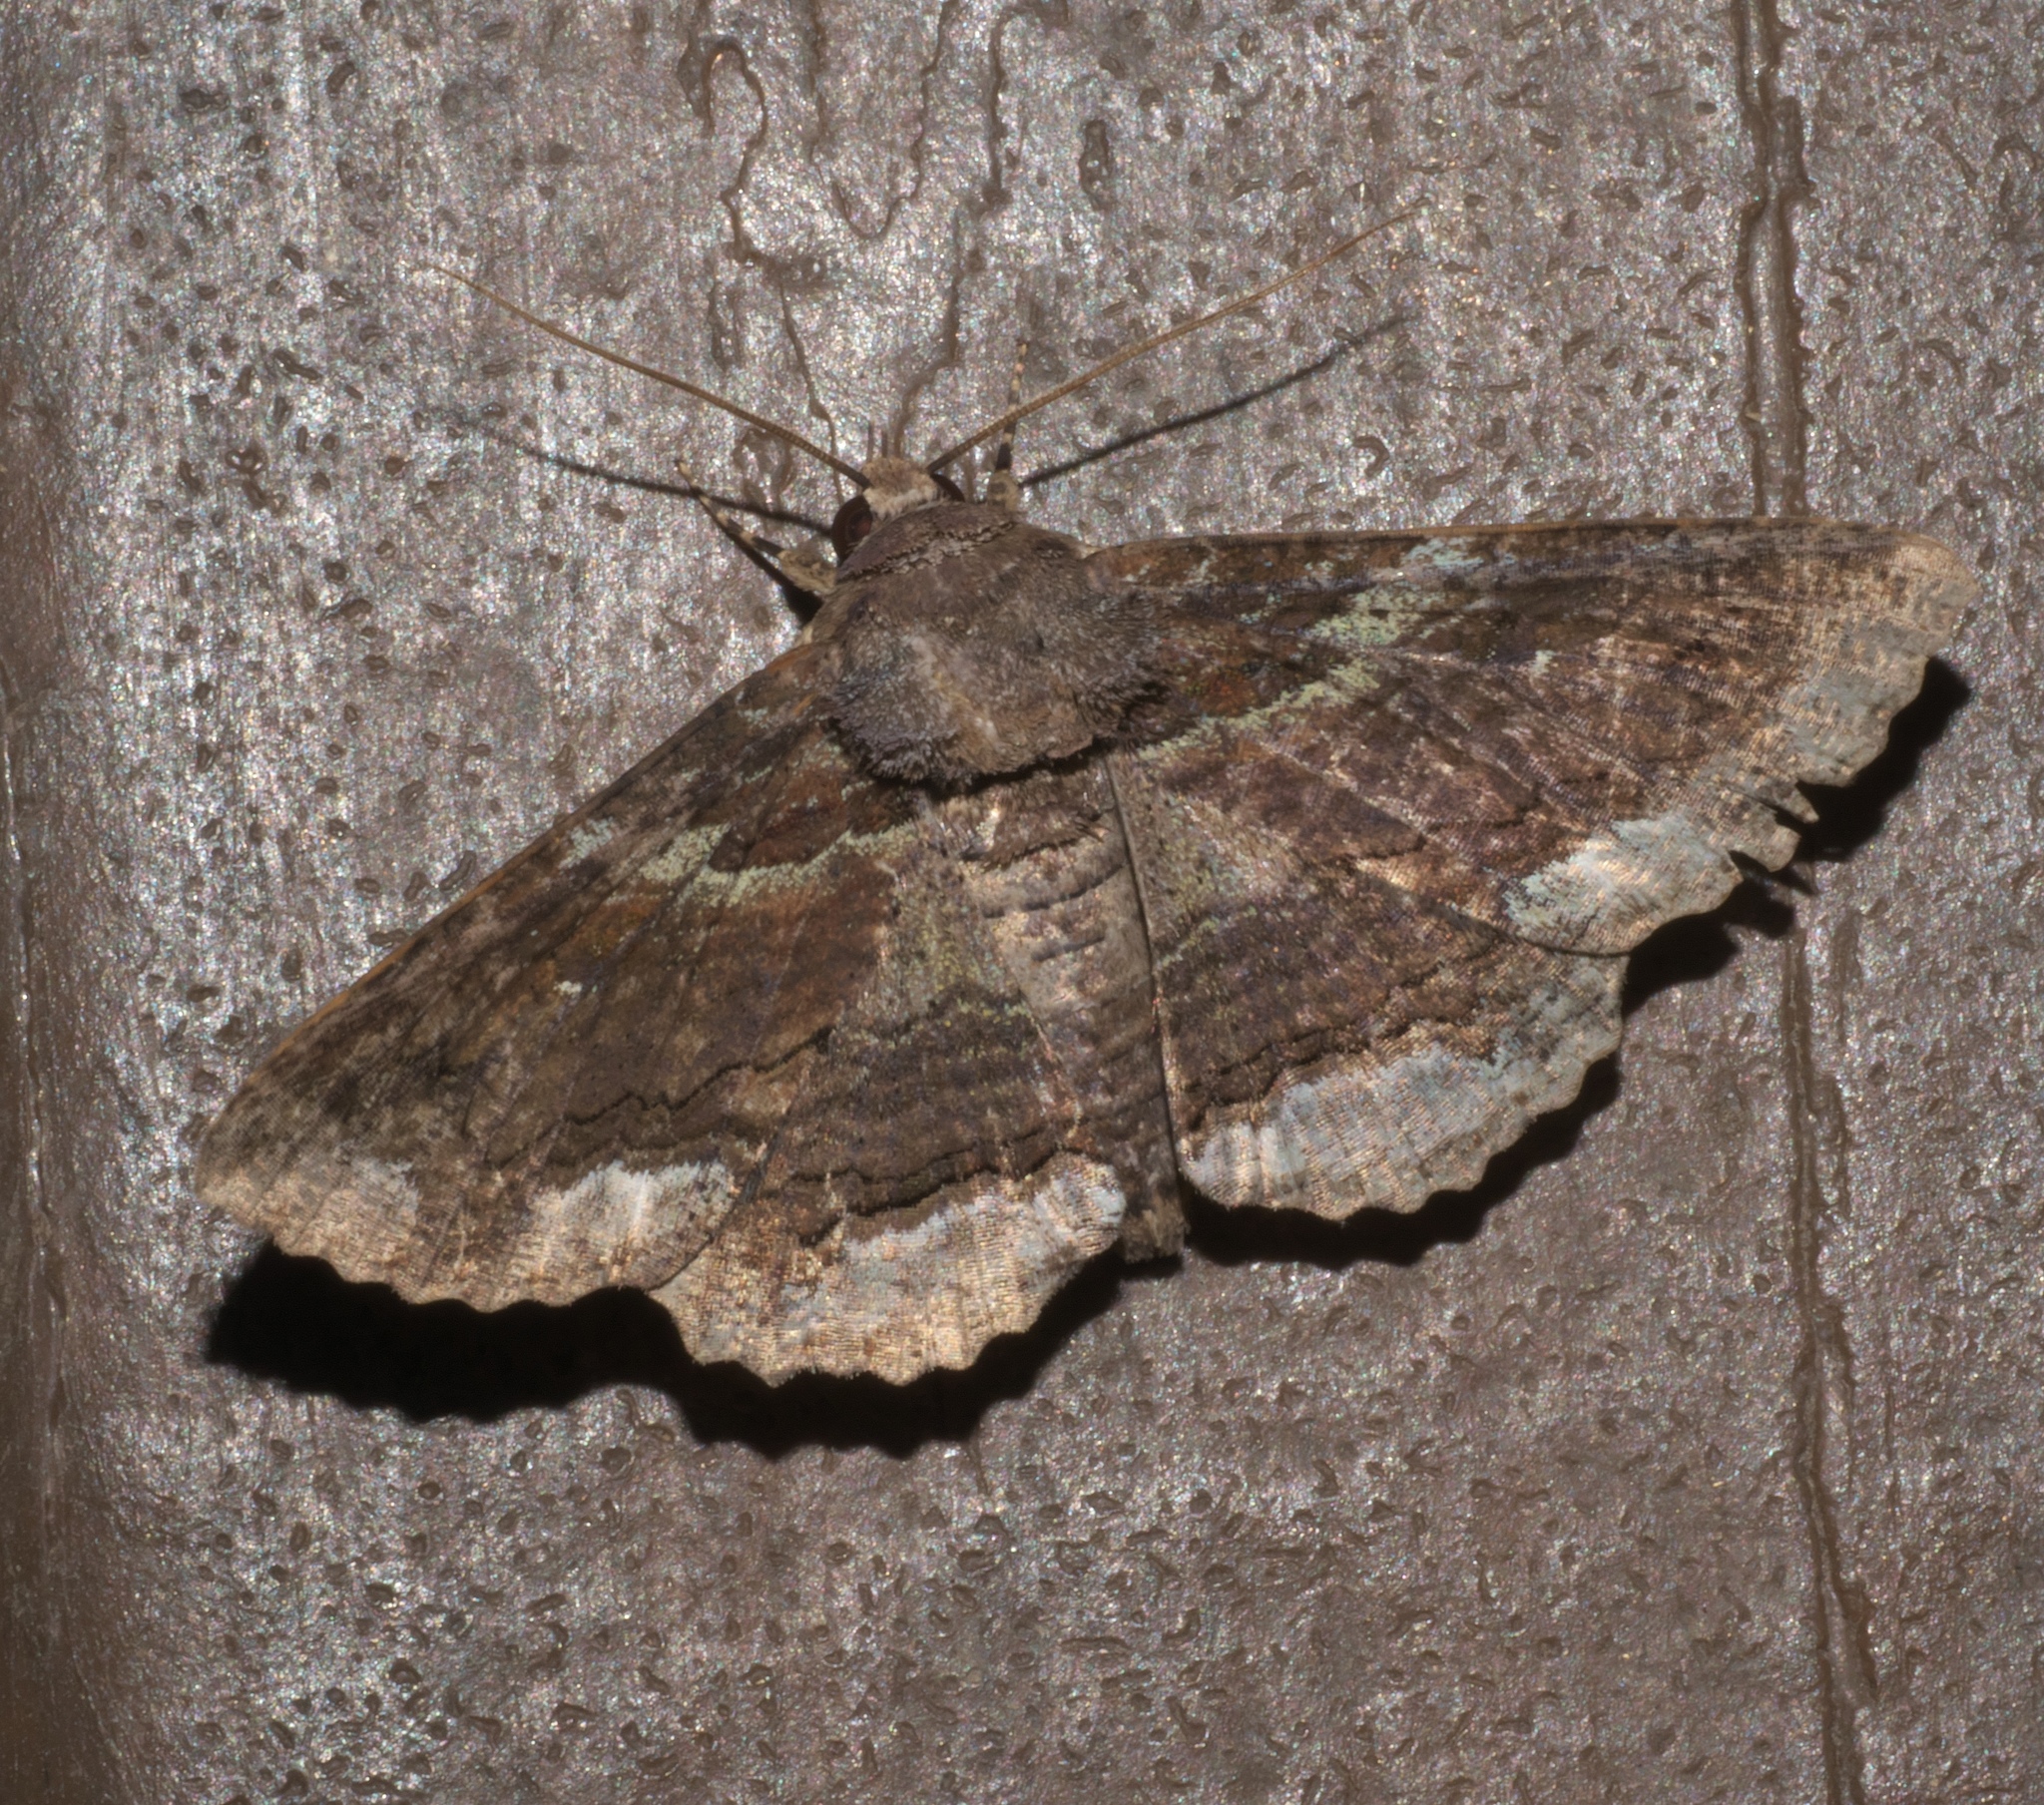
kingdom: Animalia
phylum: Arthropoda
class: Insecta
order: Lepidoptera
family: Erebidae
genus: Zale
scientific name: Zale lunata
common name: Lunate zale moth
